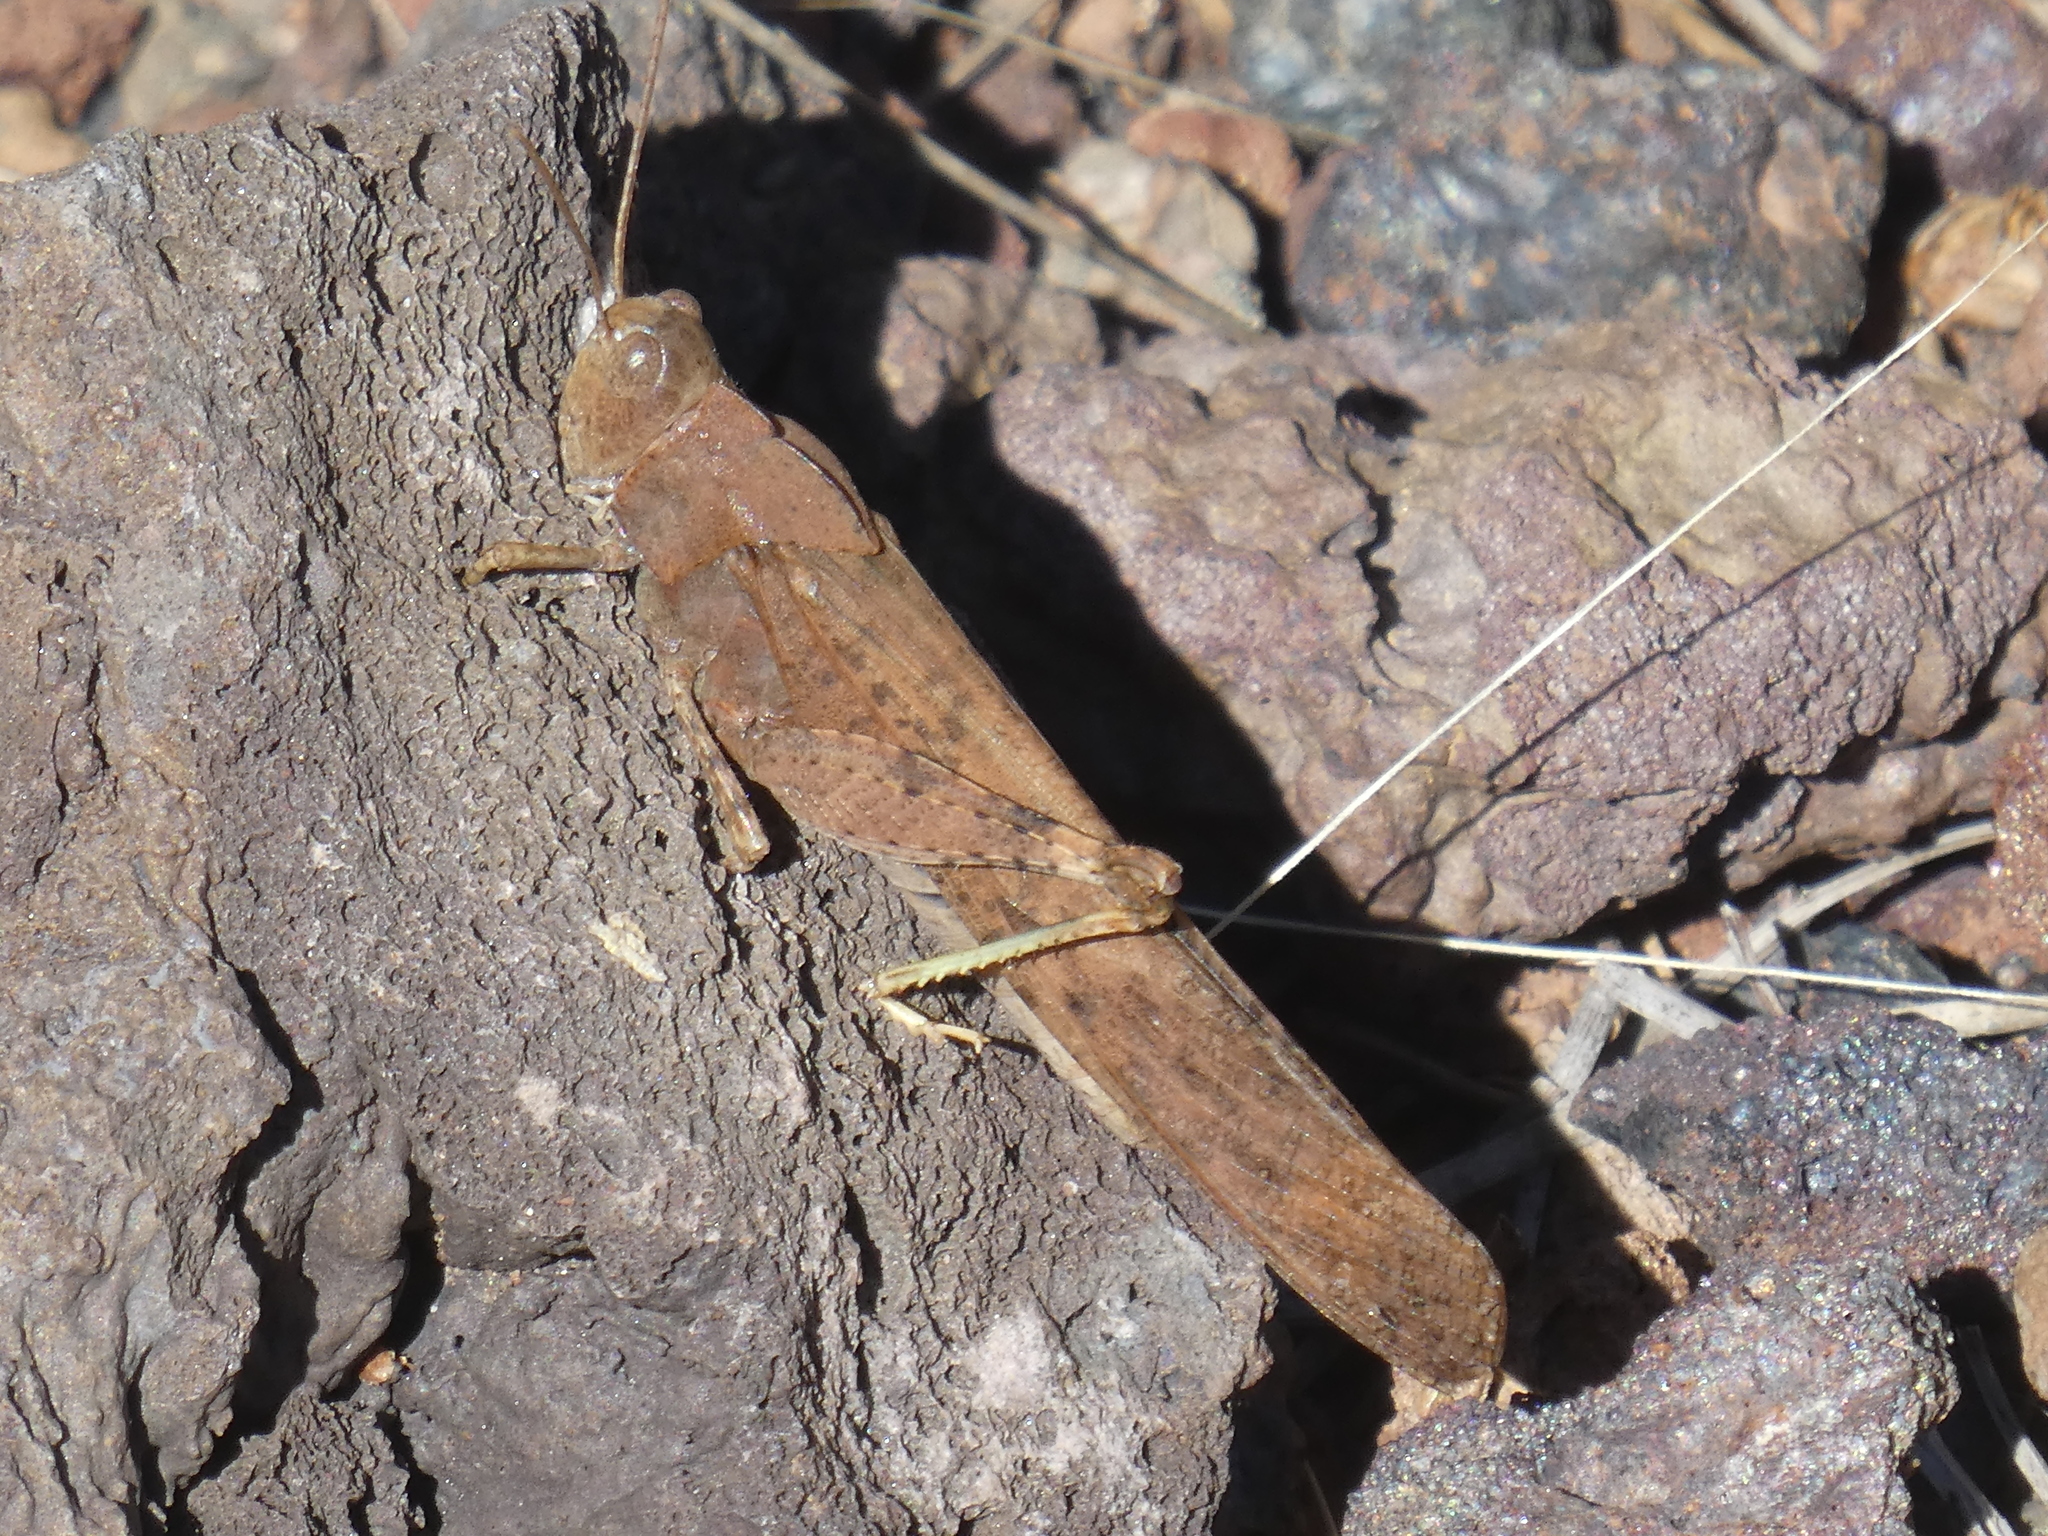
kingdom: Animalia
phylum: Arthropoda
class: Insecta
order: Orthoptera
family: Acrididae
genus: Dissosteira
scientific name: Dissosteira carolina
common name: Carolina grasshopper
